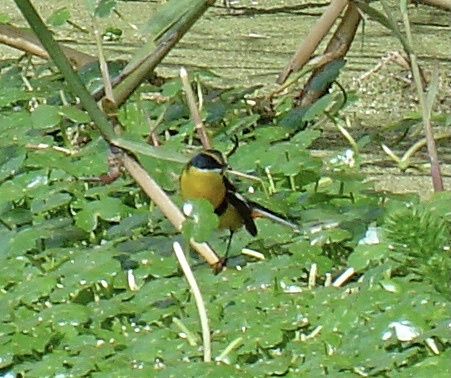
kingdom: Animalia
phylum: Chordata
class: Aves
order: Passeriformes
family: Tyrannidae
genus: Tachuris
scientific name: Tachuris rubrigastra
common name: Many-colored rush tyrant
